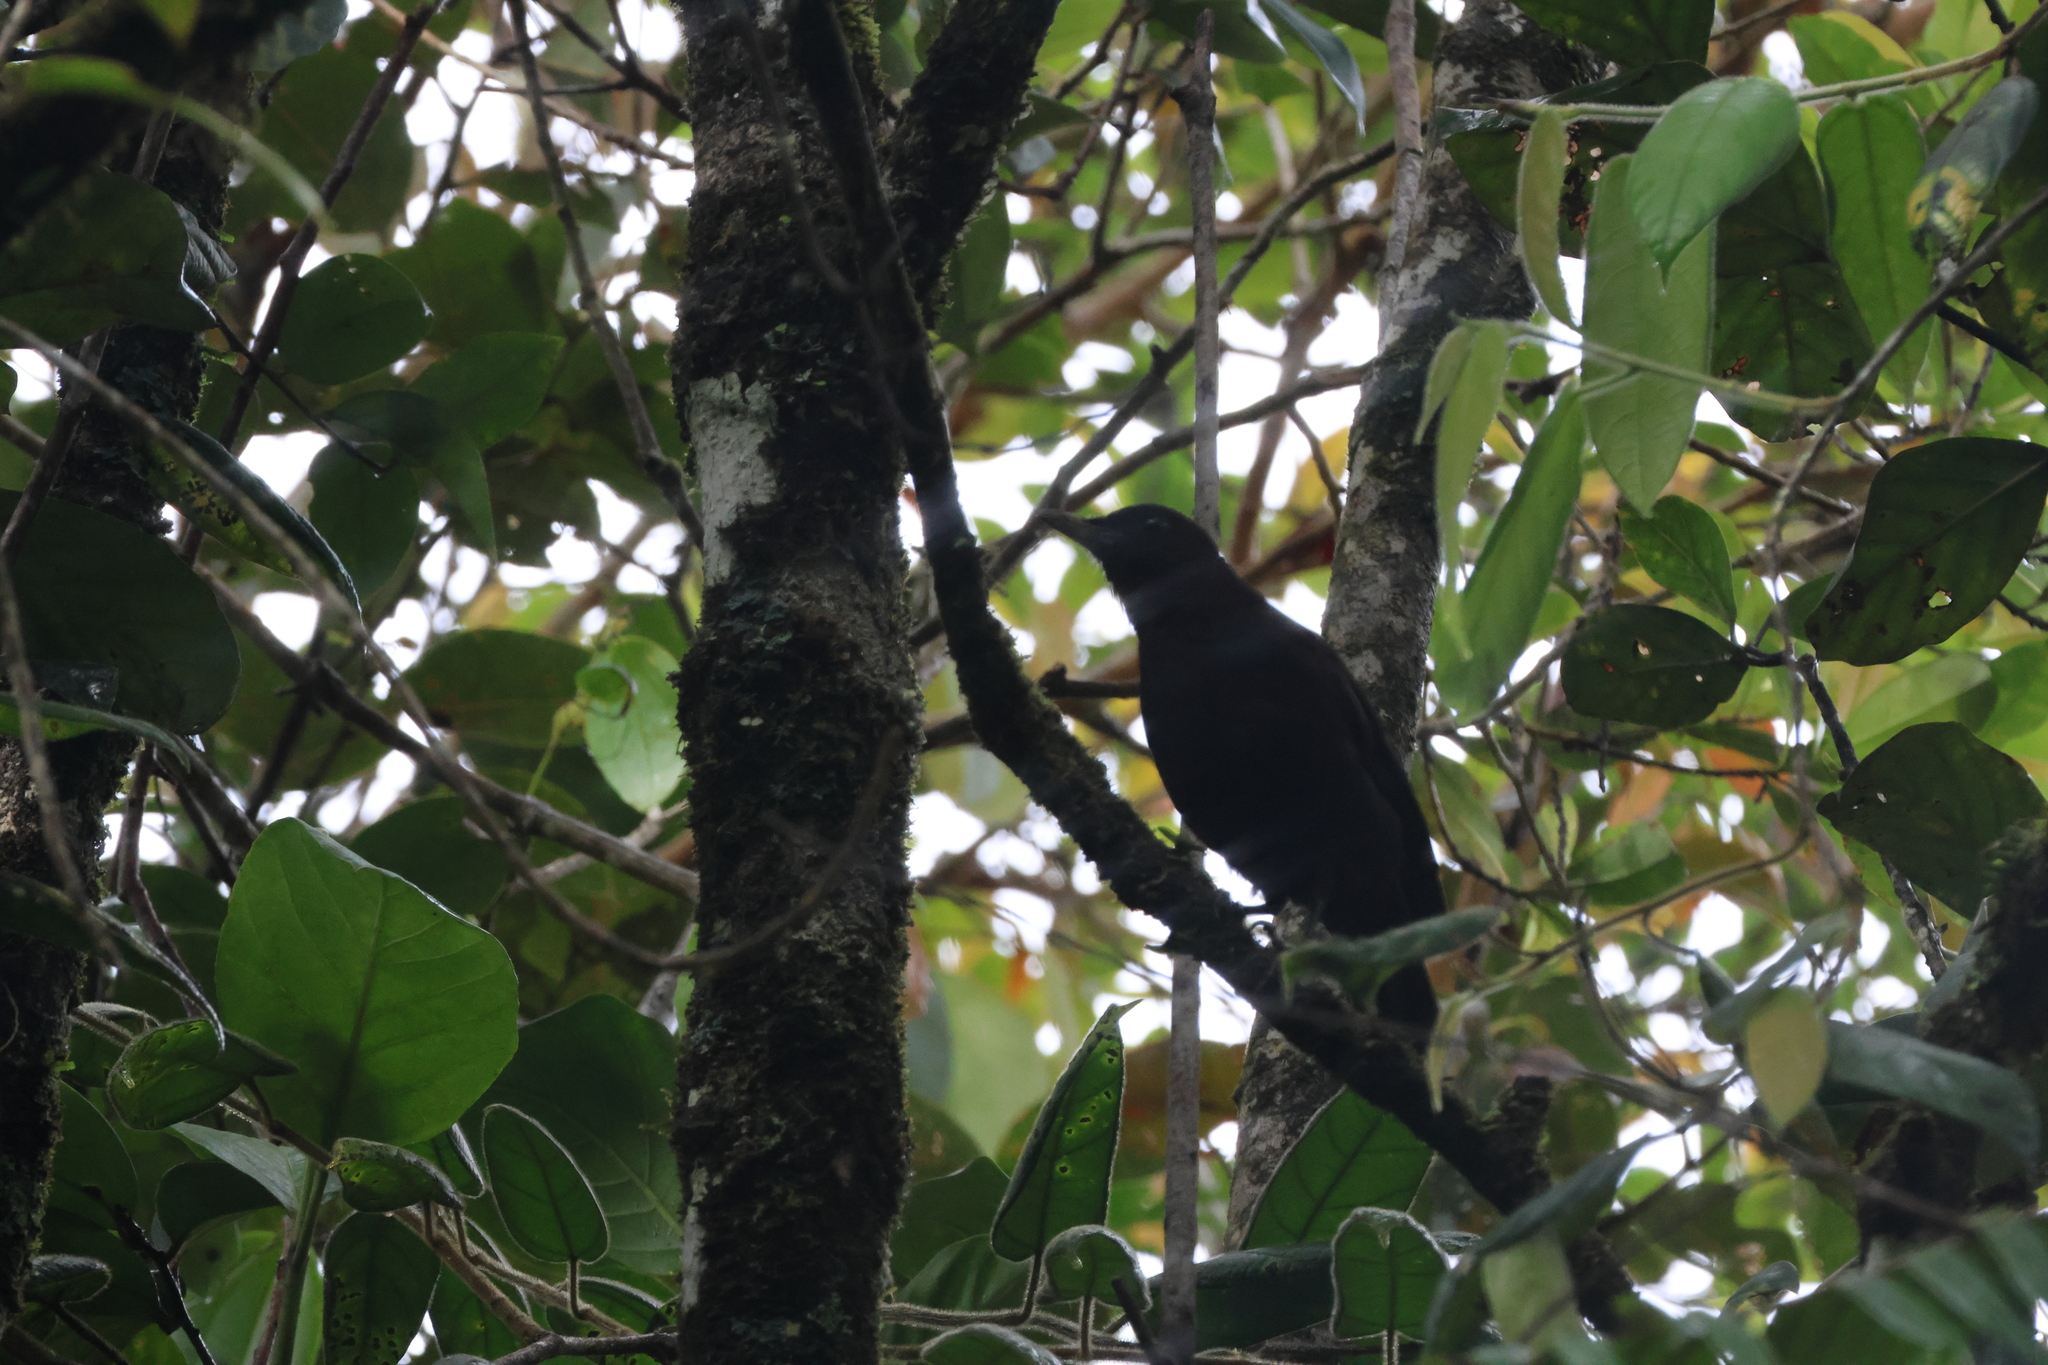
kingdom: Animalia
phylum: Chordata
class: Aves
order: Passeriformes
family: Muscicapidae
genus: Myophonus
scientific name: Myophonus borneensis
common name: Bornean whistling-thrush
